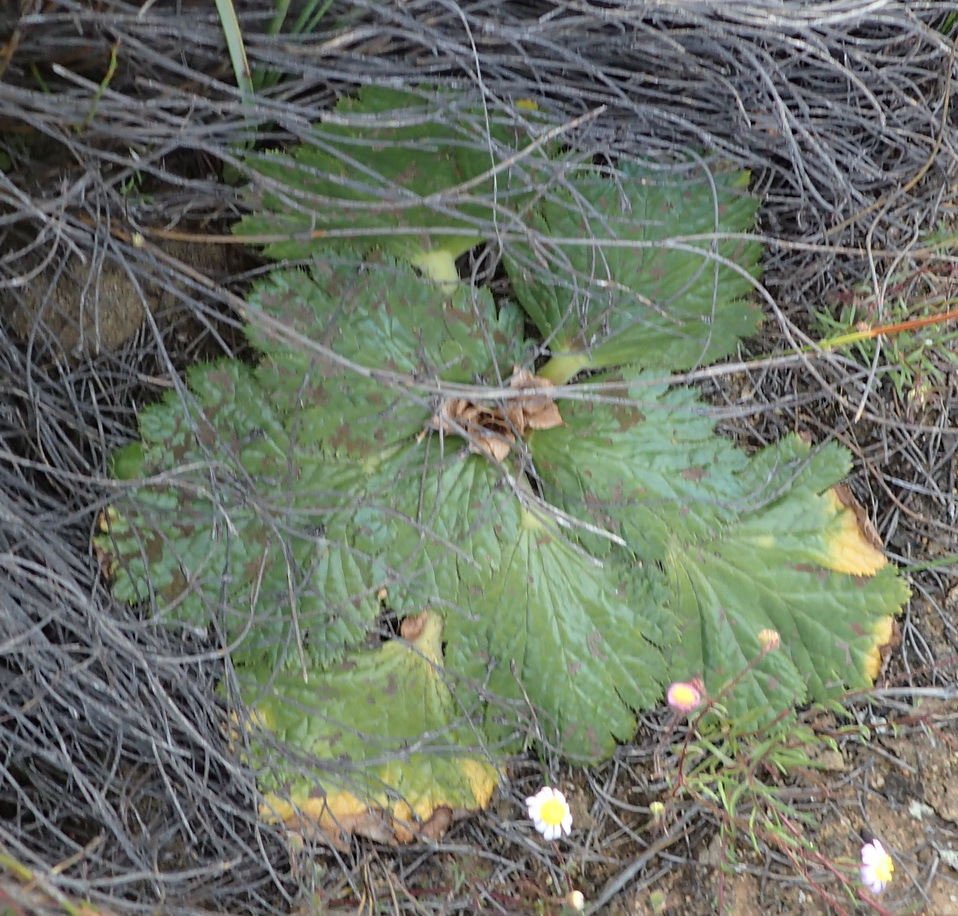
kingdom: Plantae
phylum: Tracheophyta
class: Magnoliopsida
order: Apiales
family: Apiaceae
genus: Arctopus
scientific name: Arctopus monacanthus
